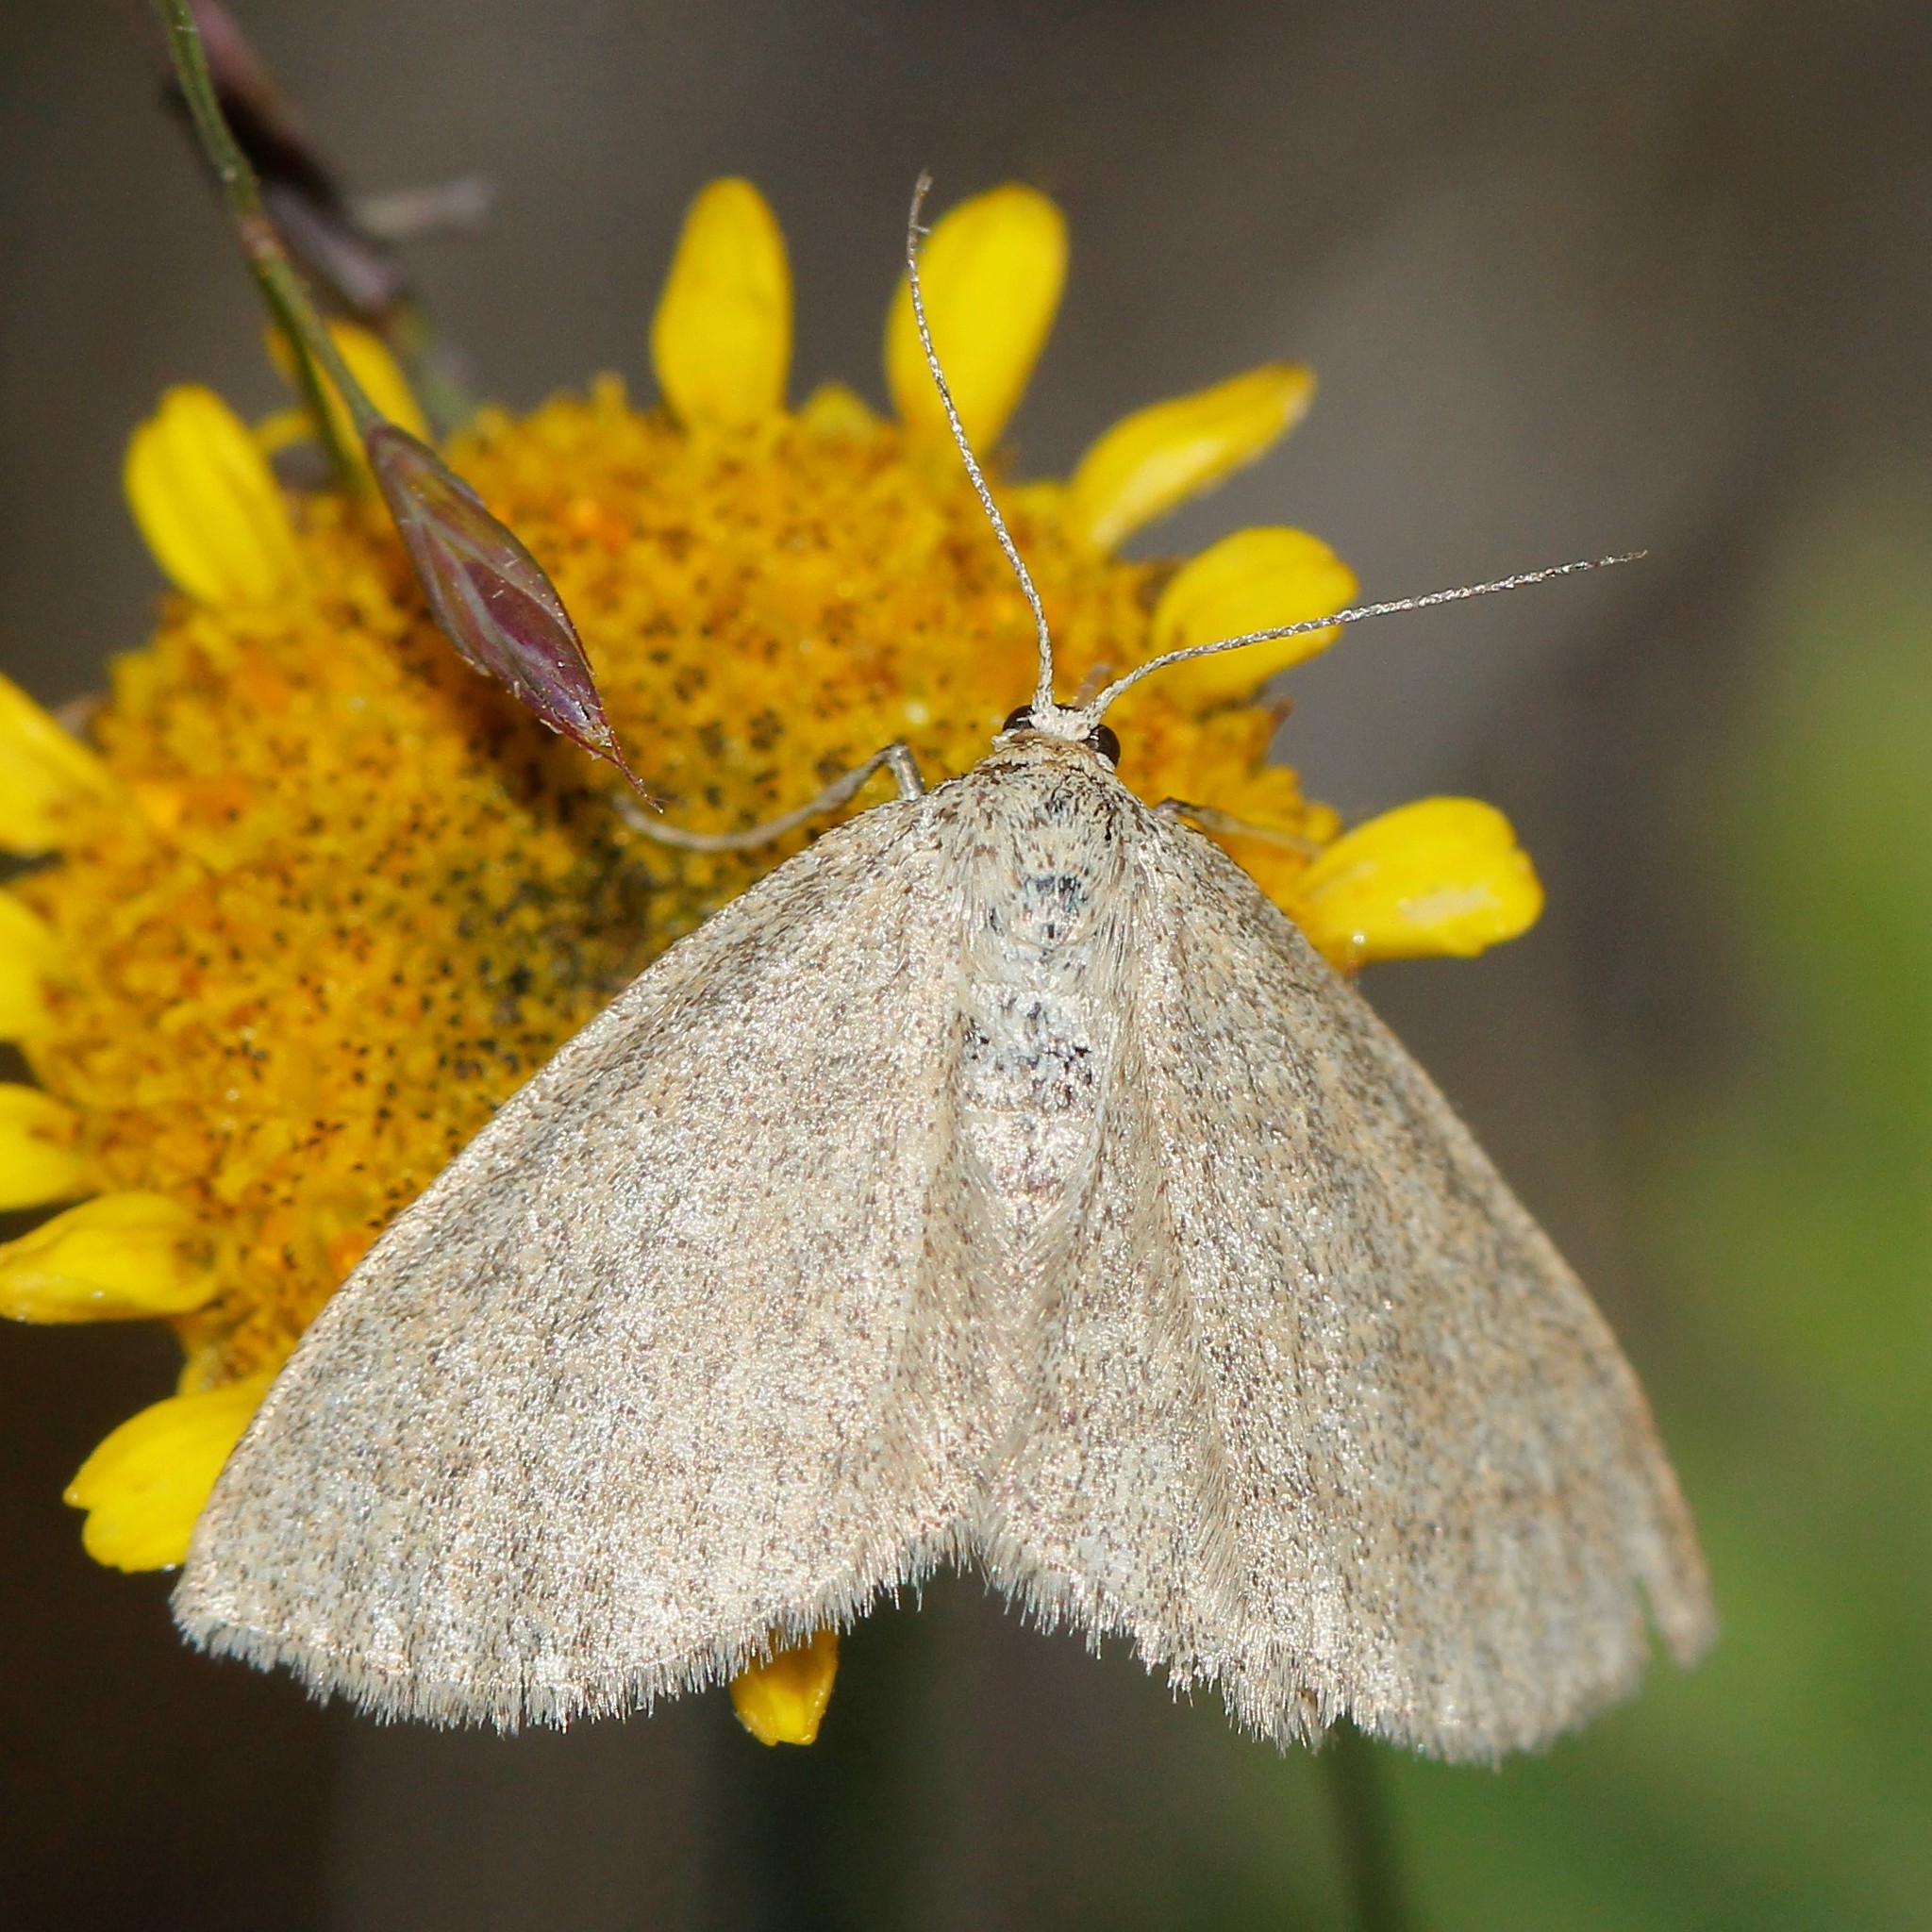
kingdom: Animalia
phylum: Arthropoda
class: Insecta
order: Lepidoptera
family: Geometridae
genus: Scopula
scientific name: Scopula ternata
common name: Smoky wave
